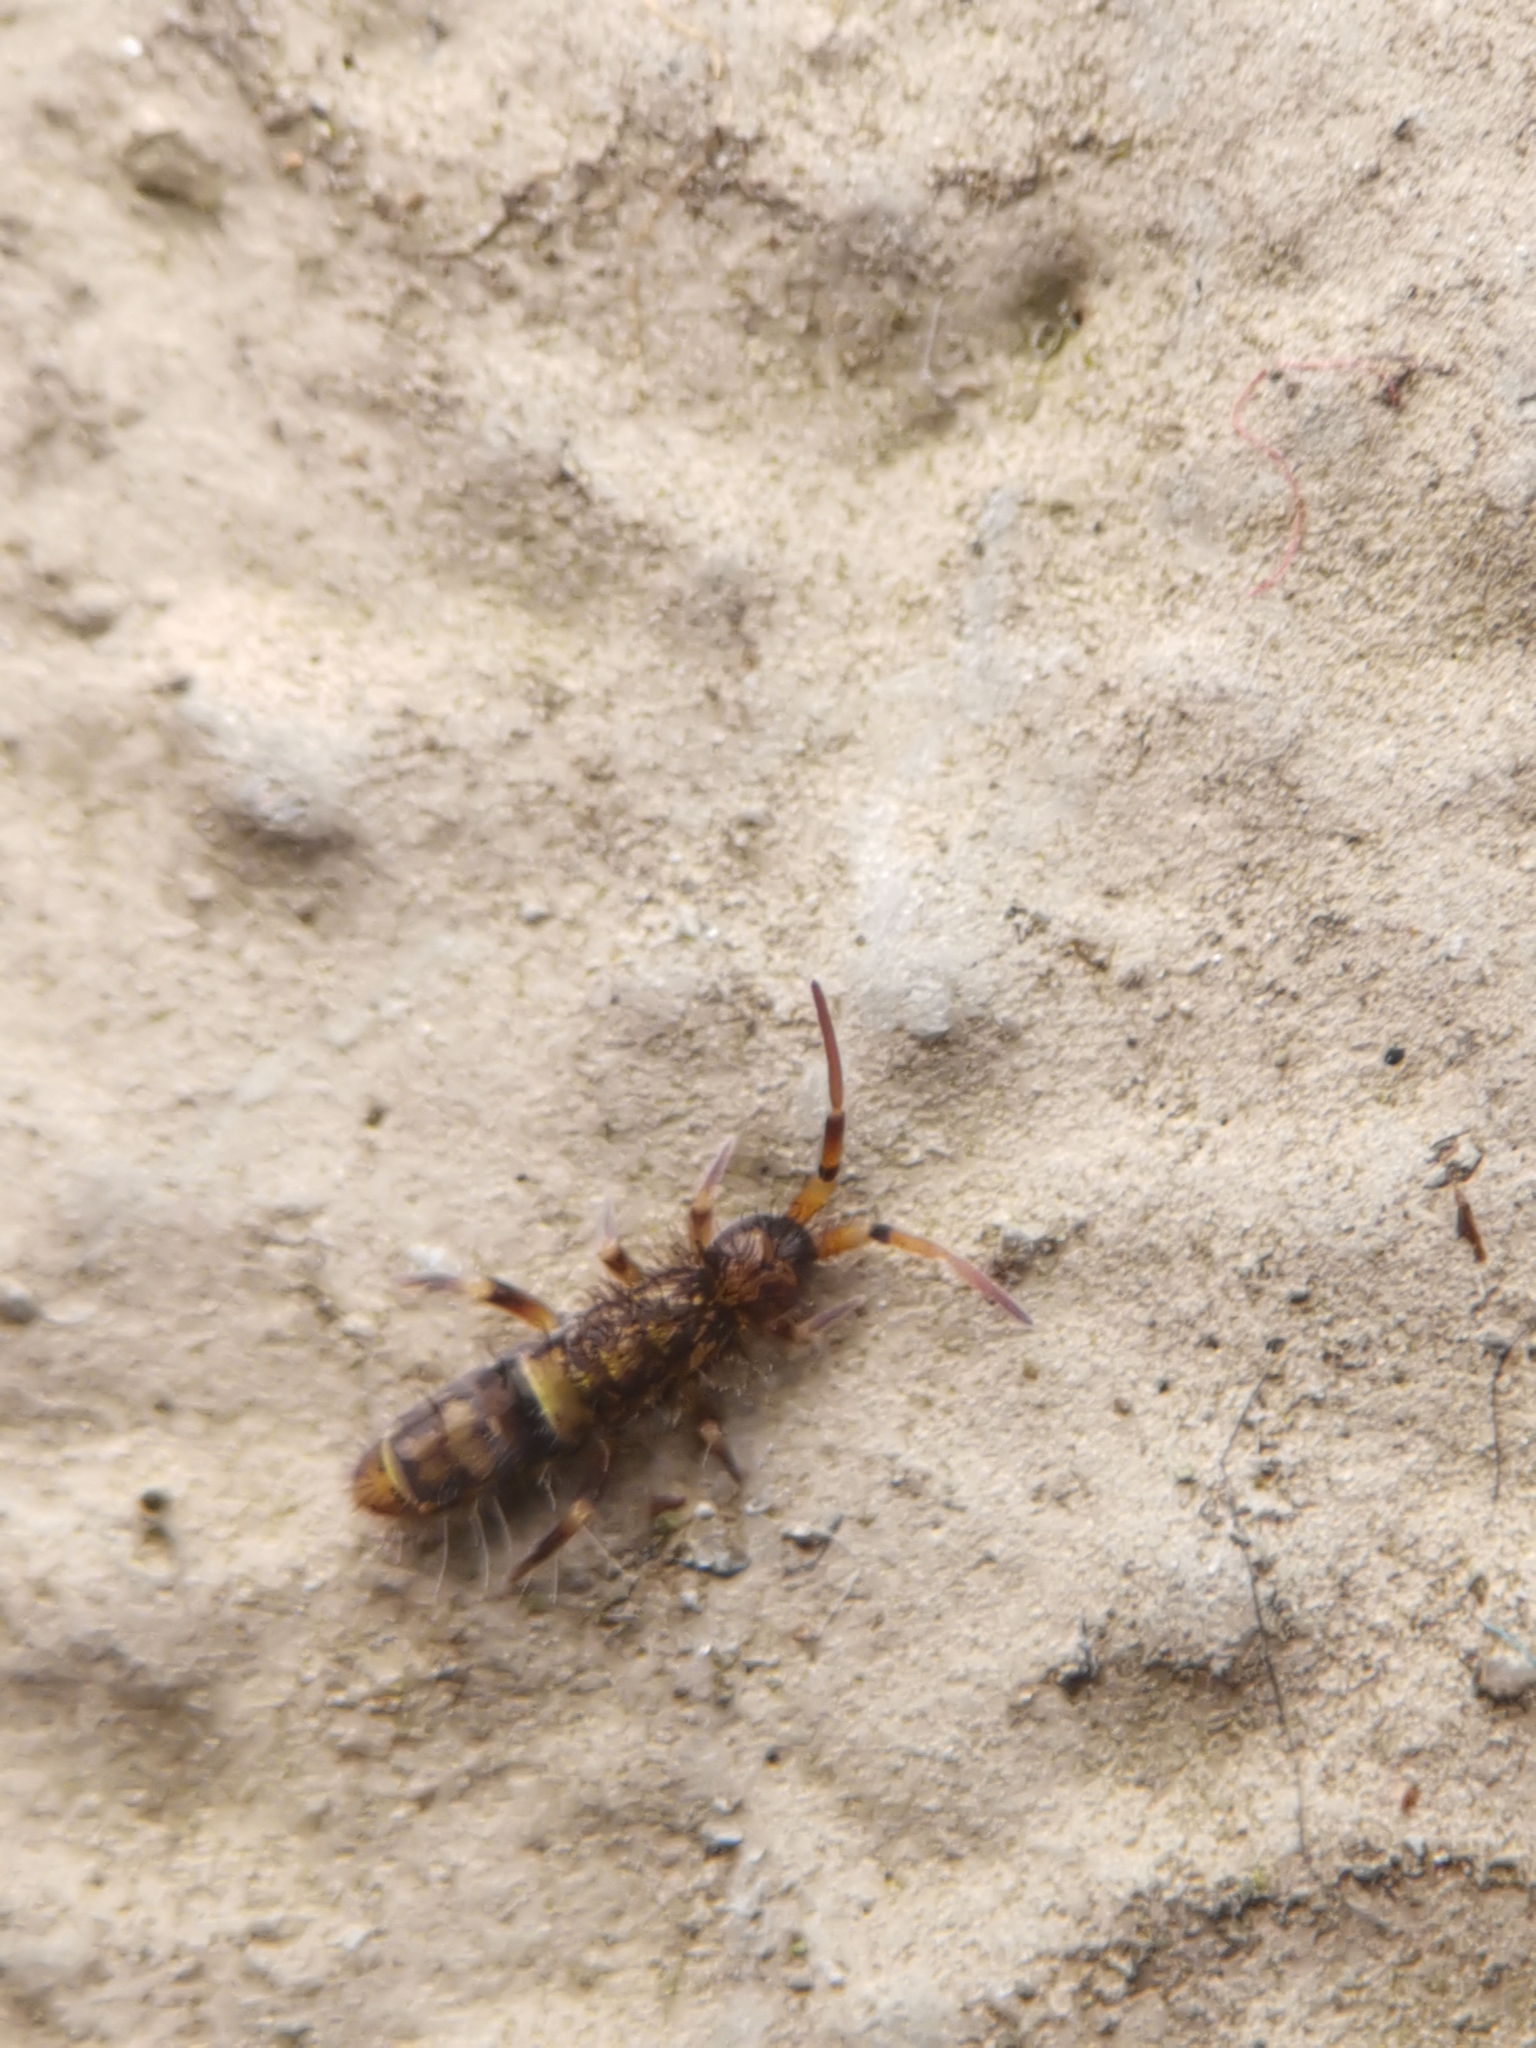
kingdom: Animalia
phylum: Arthropoda
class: Collembola
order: Entomobryomorpha
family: Orchesellidae
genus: Orchesella
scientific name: Orchesella cincta
